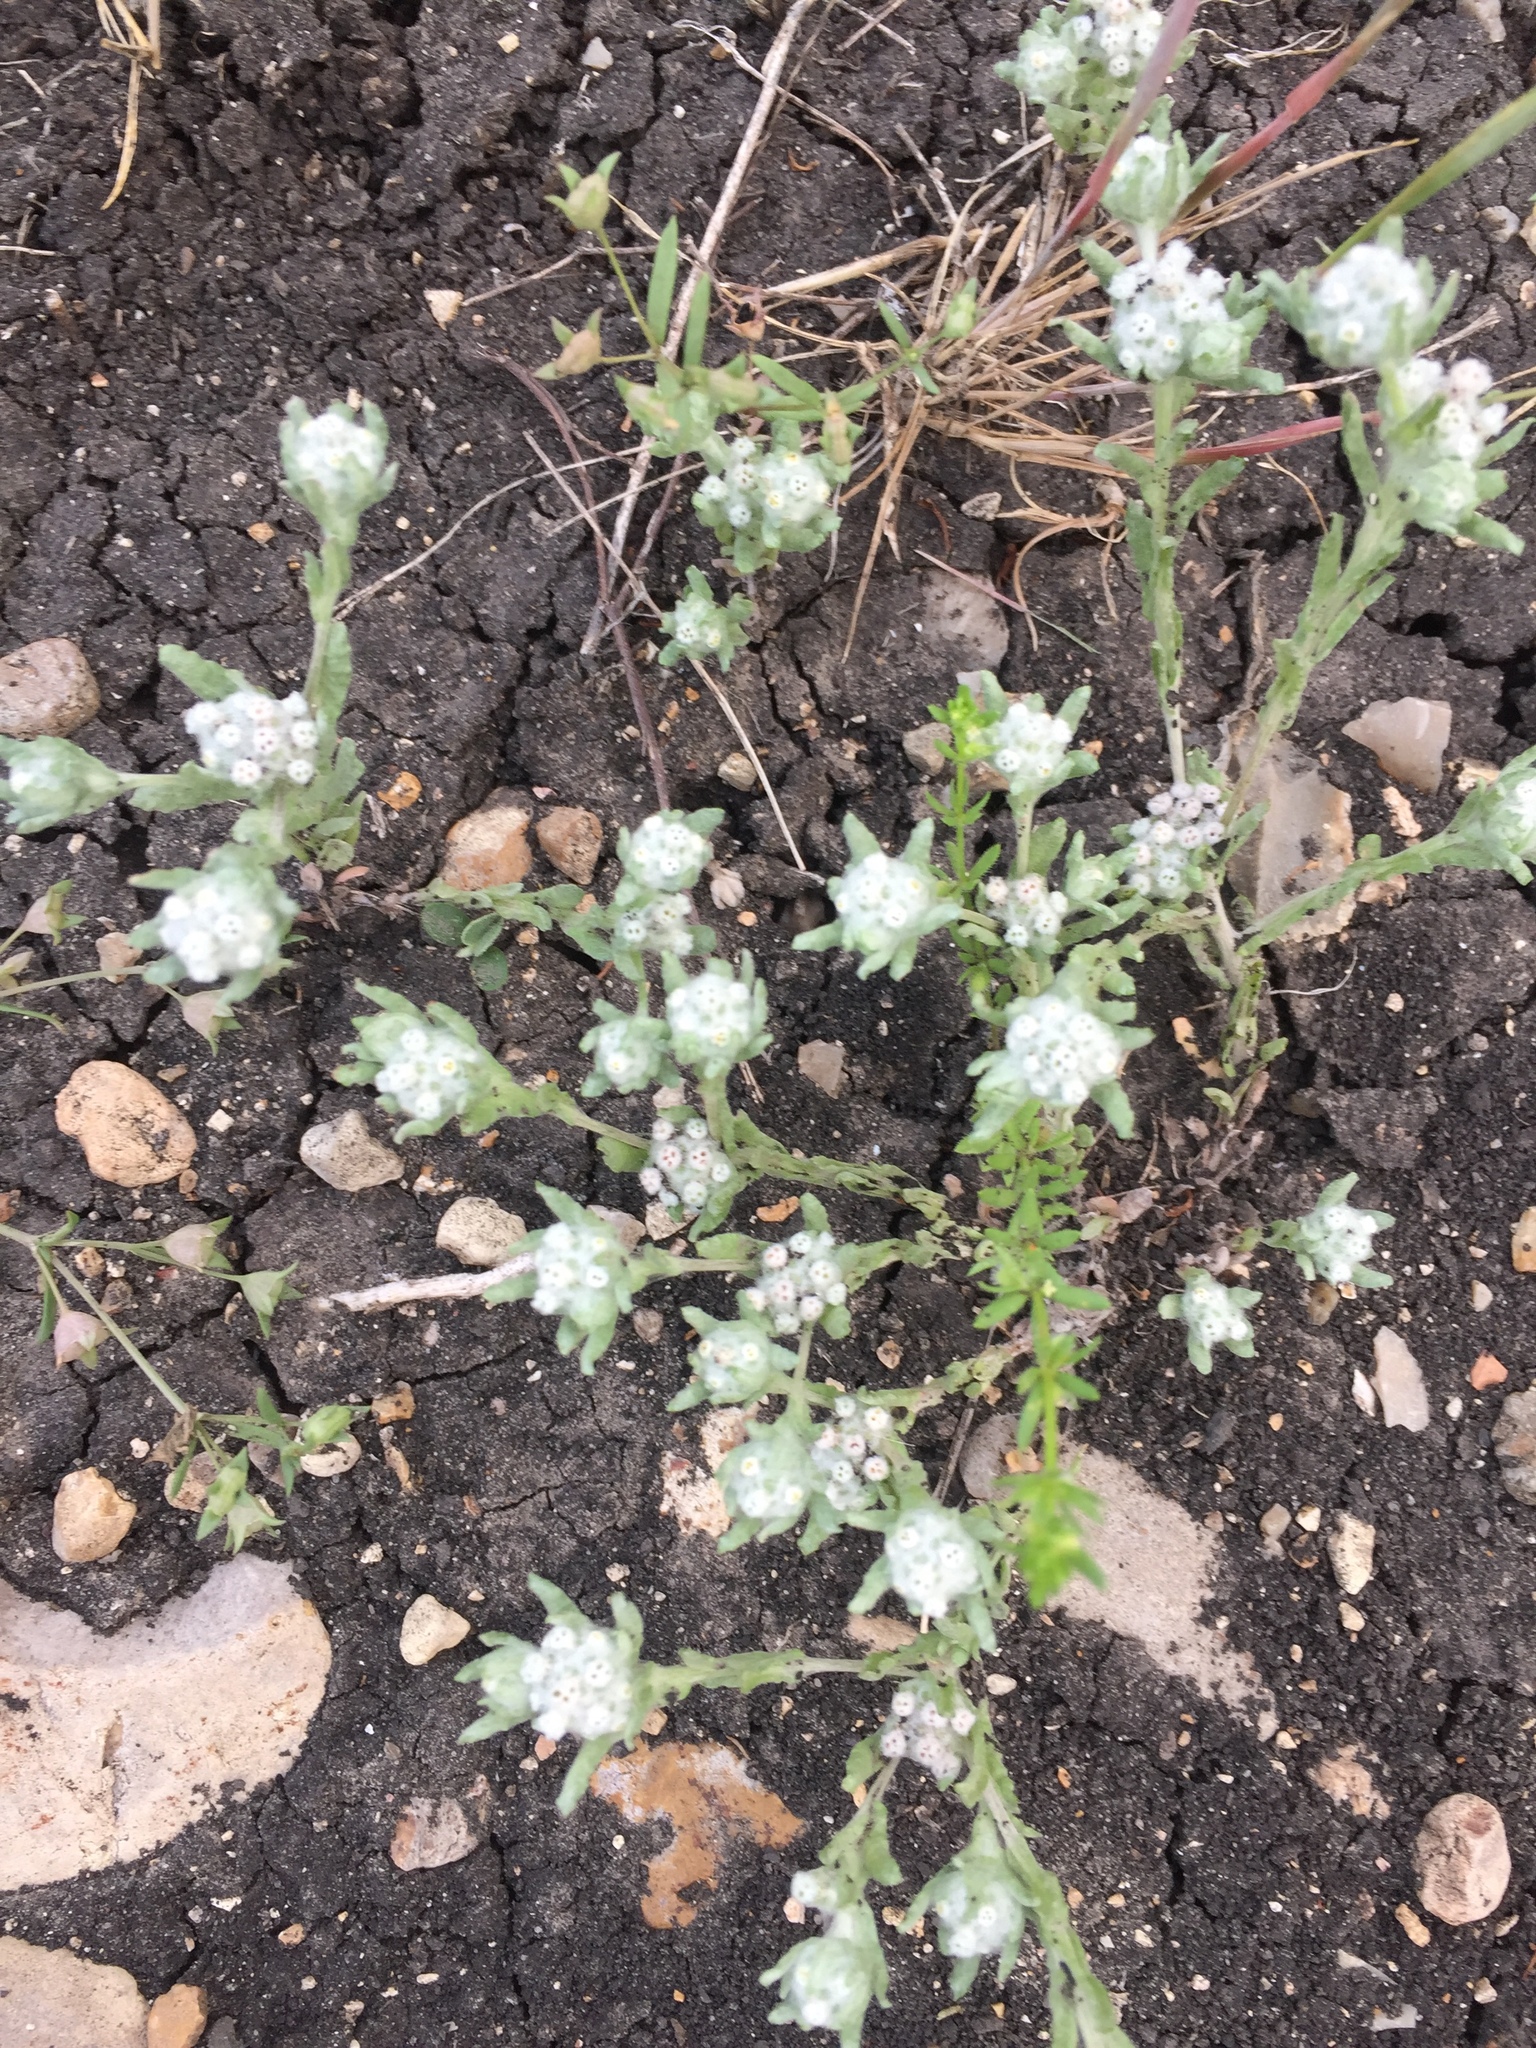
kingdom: Plantae
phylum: Tracheophyta
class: Magnoliopsida
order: Asterales
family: Asteraceae
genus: Diaperia
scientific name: Diaperia verna
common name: Many-stem rabbit-tobacco
